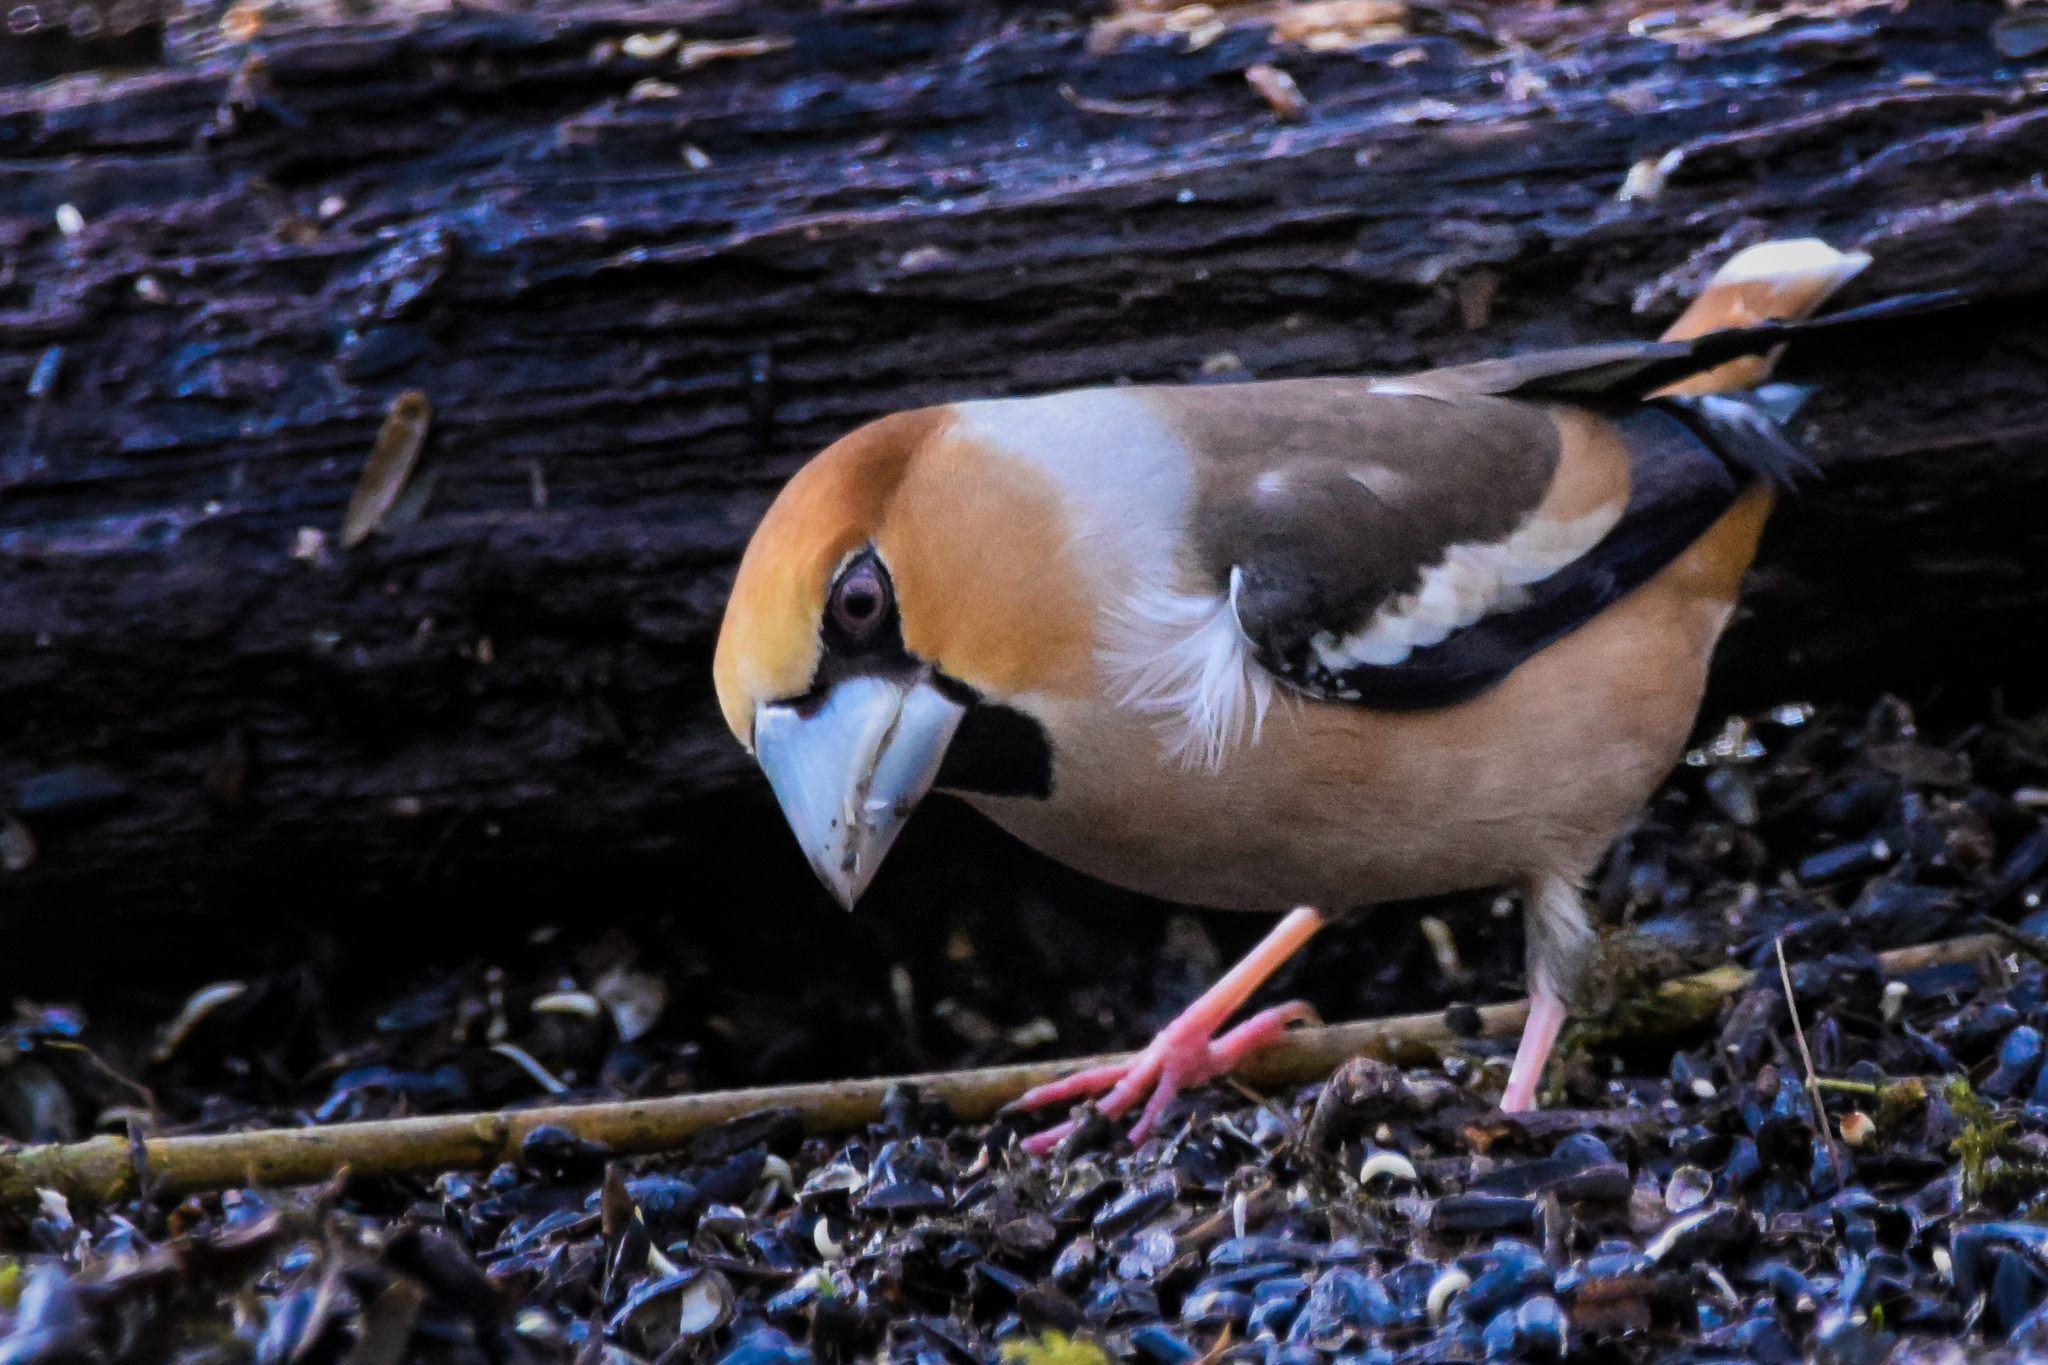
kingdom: Animalia
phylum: Chordata
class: Aves
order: Passeriformes
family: Fringillidae
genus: Coccothraustes
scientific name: Coccothraustes coccothraustes
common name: Hawfinch
